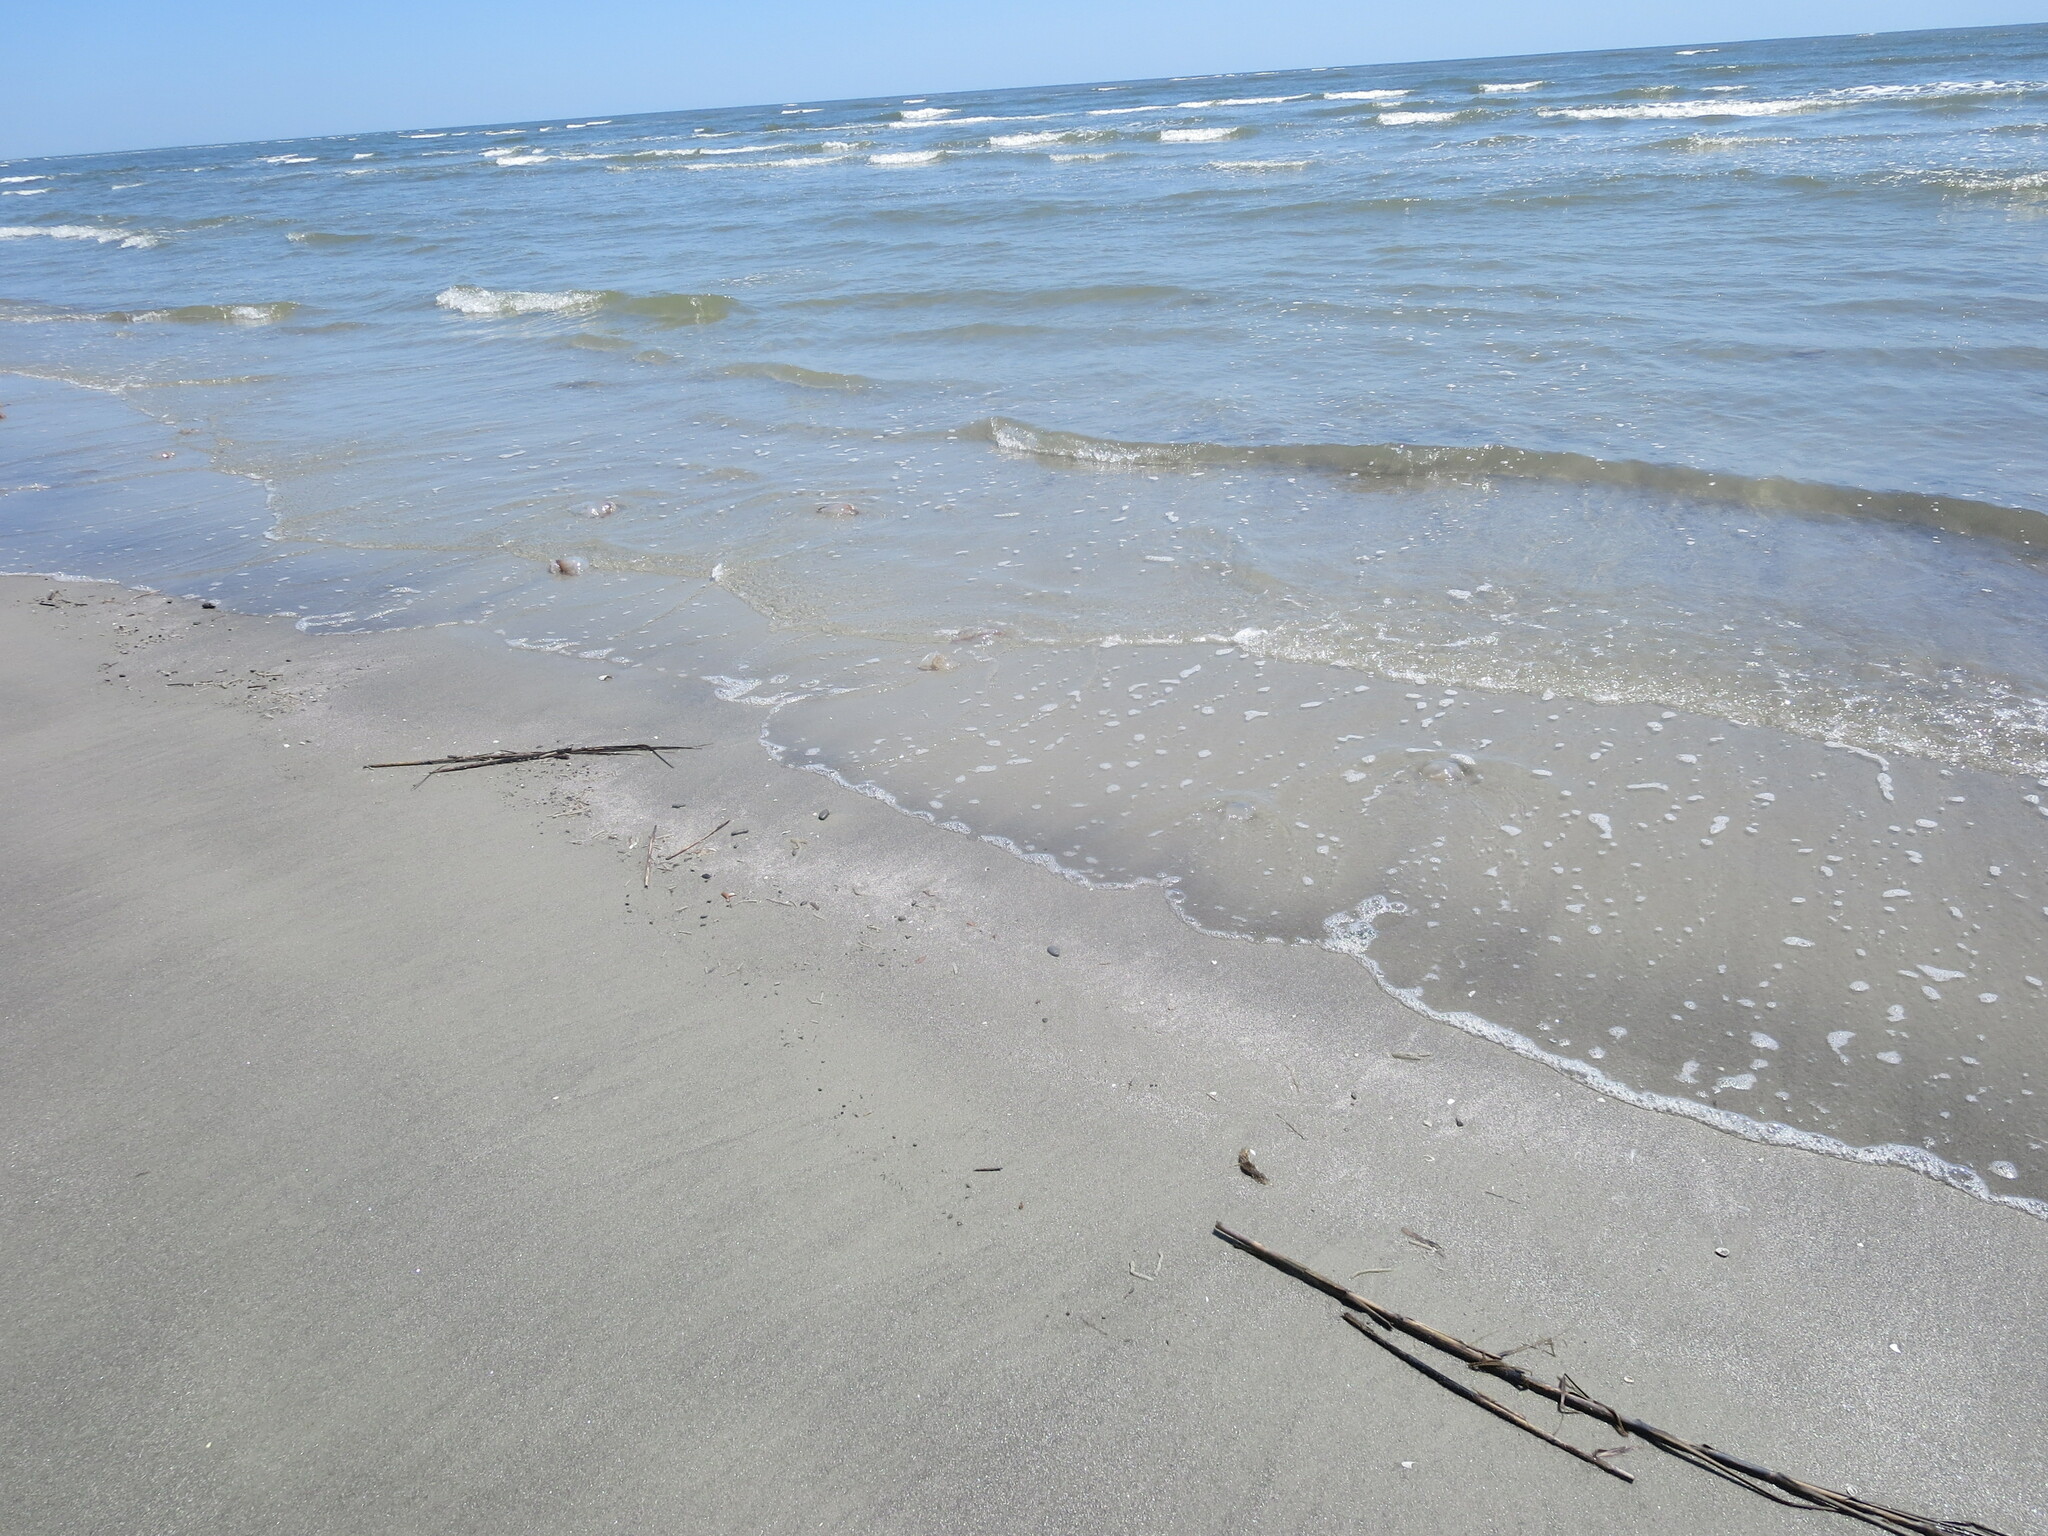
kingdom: Animalia
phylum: Cnidaria
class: Scyphozoa
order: Rhizostomeae
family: Stomolophidae
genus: Stomolophus
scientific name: Stomolophus meleagris
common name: Cabbagehead
